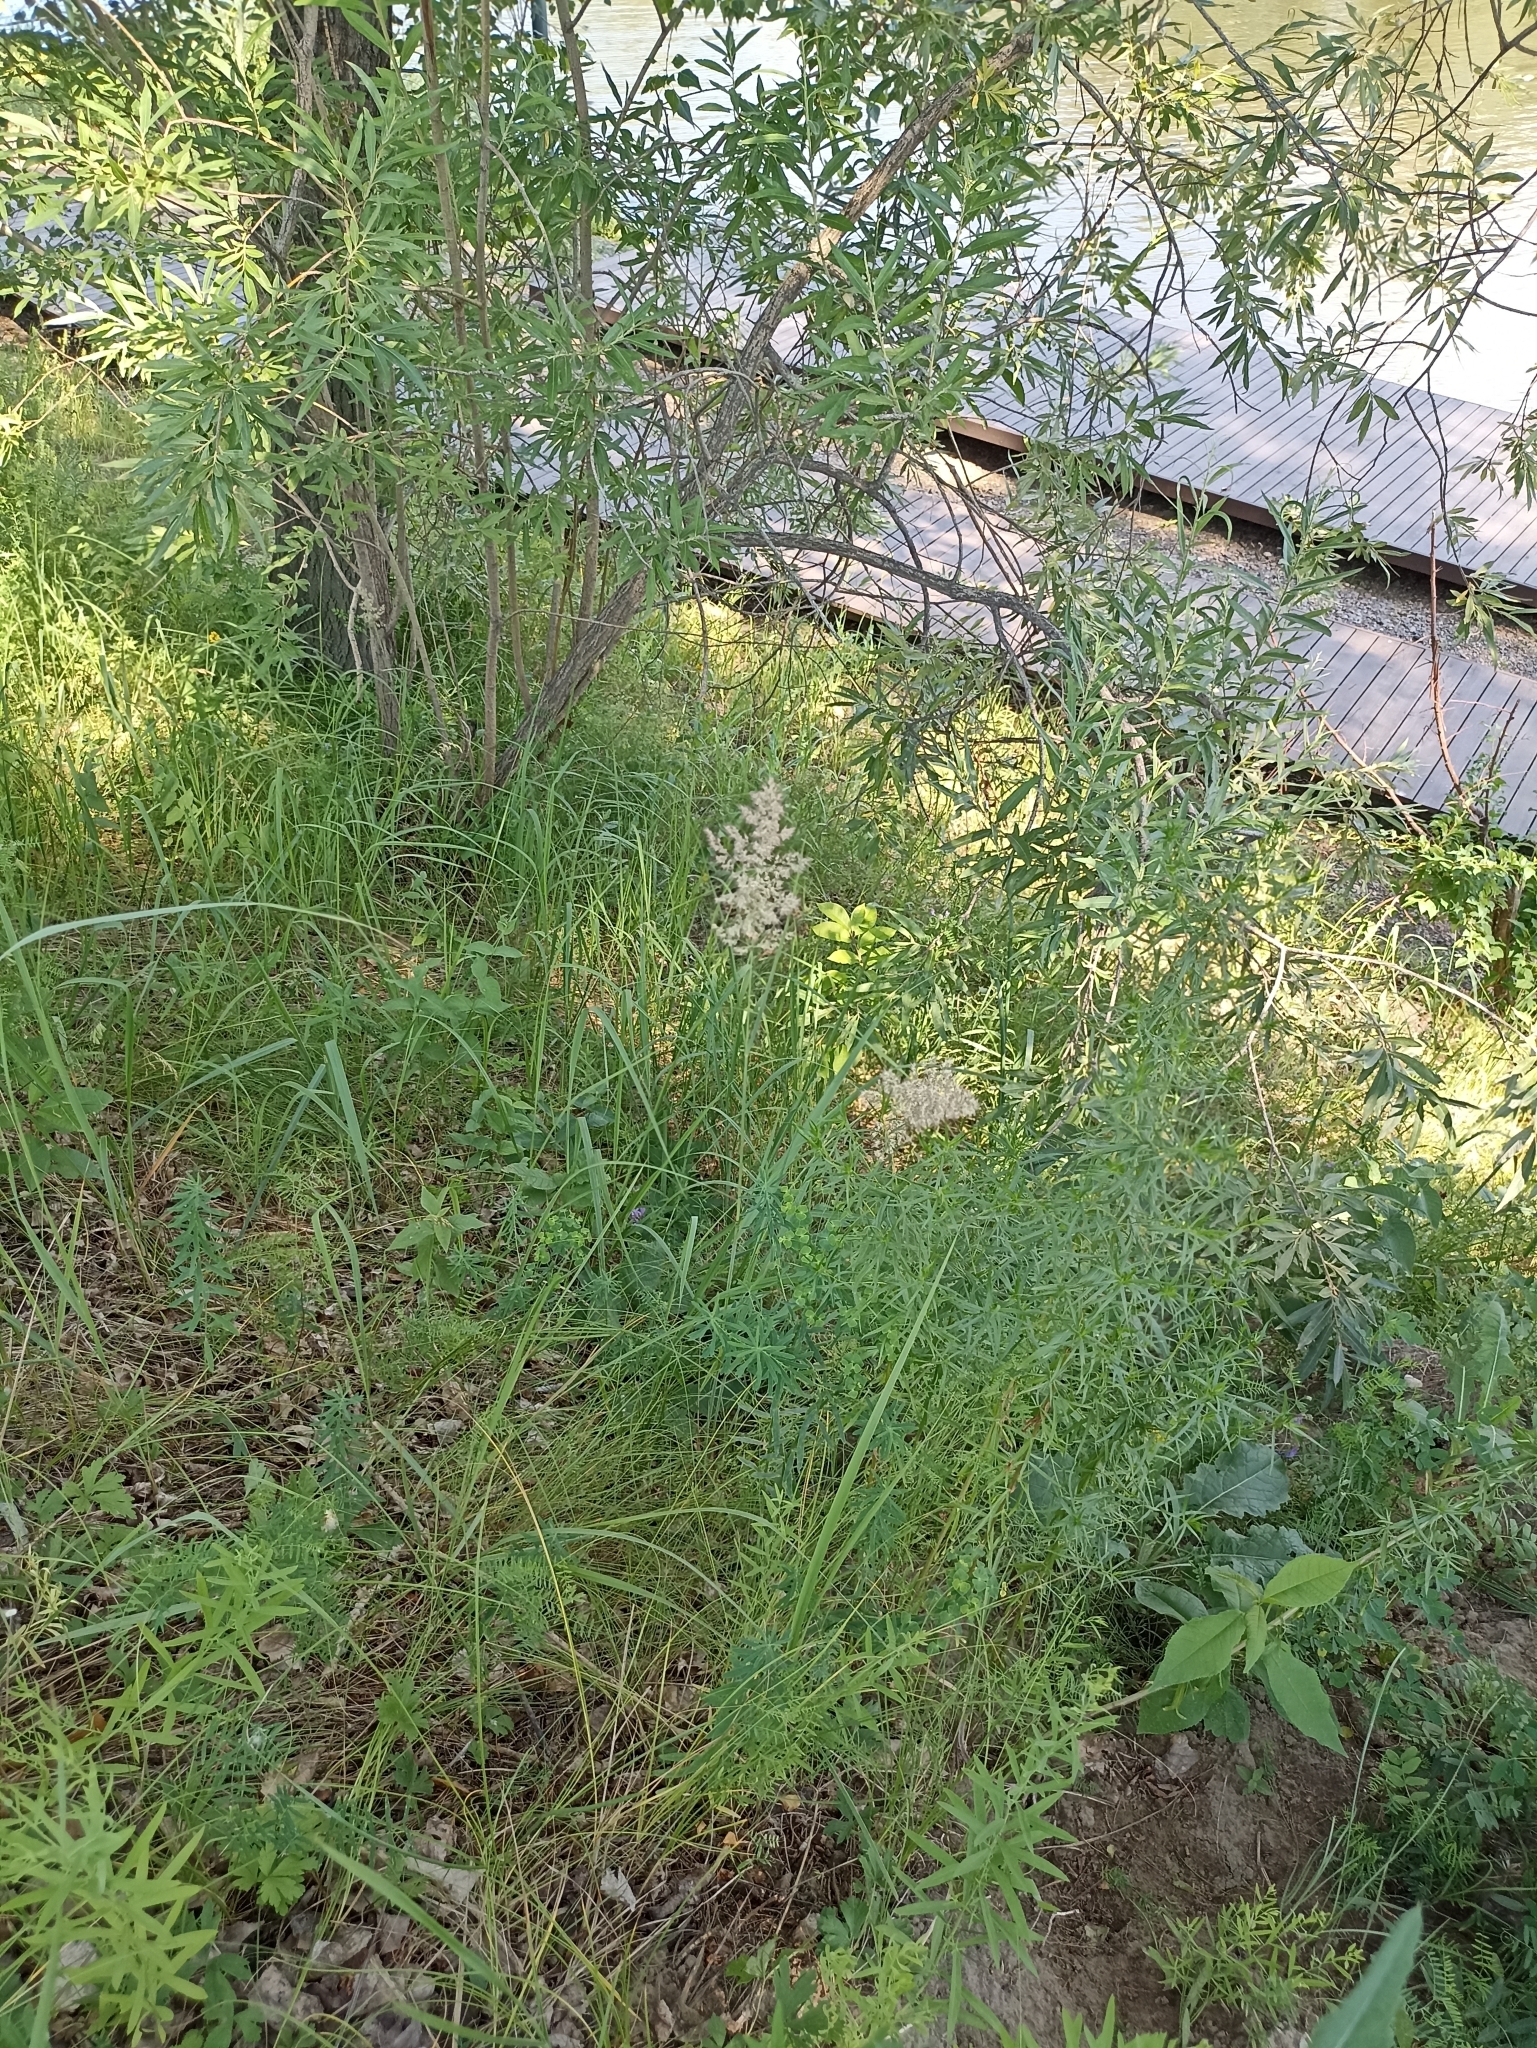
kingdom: Plantae
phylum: Tracheophyta
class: Liliopsida
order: Poales
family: Poaceae
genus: Calamagrostis
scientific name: Calamagrostis epigejos
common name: Wood small-reed
